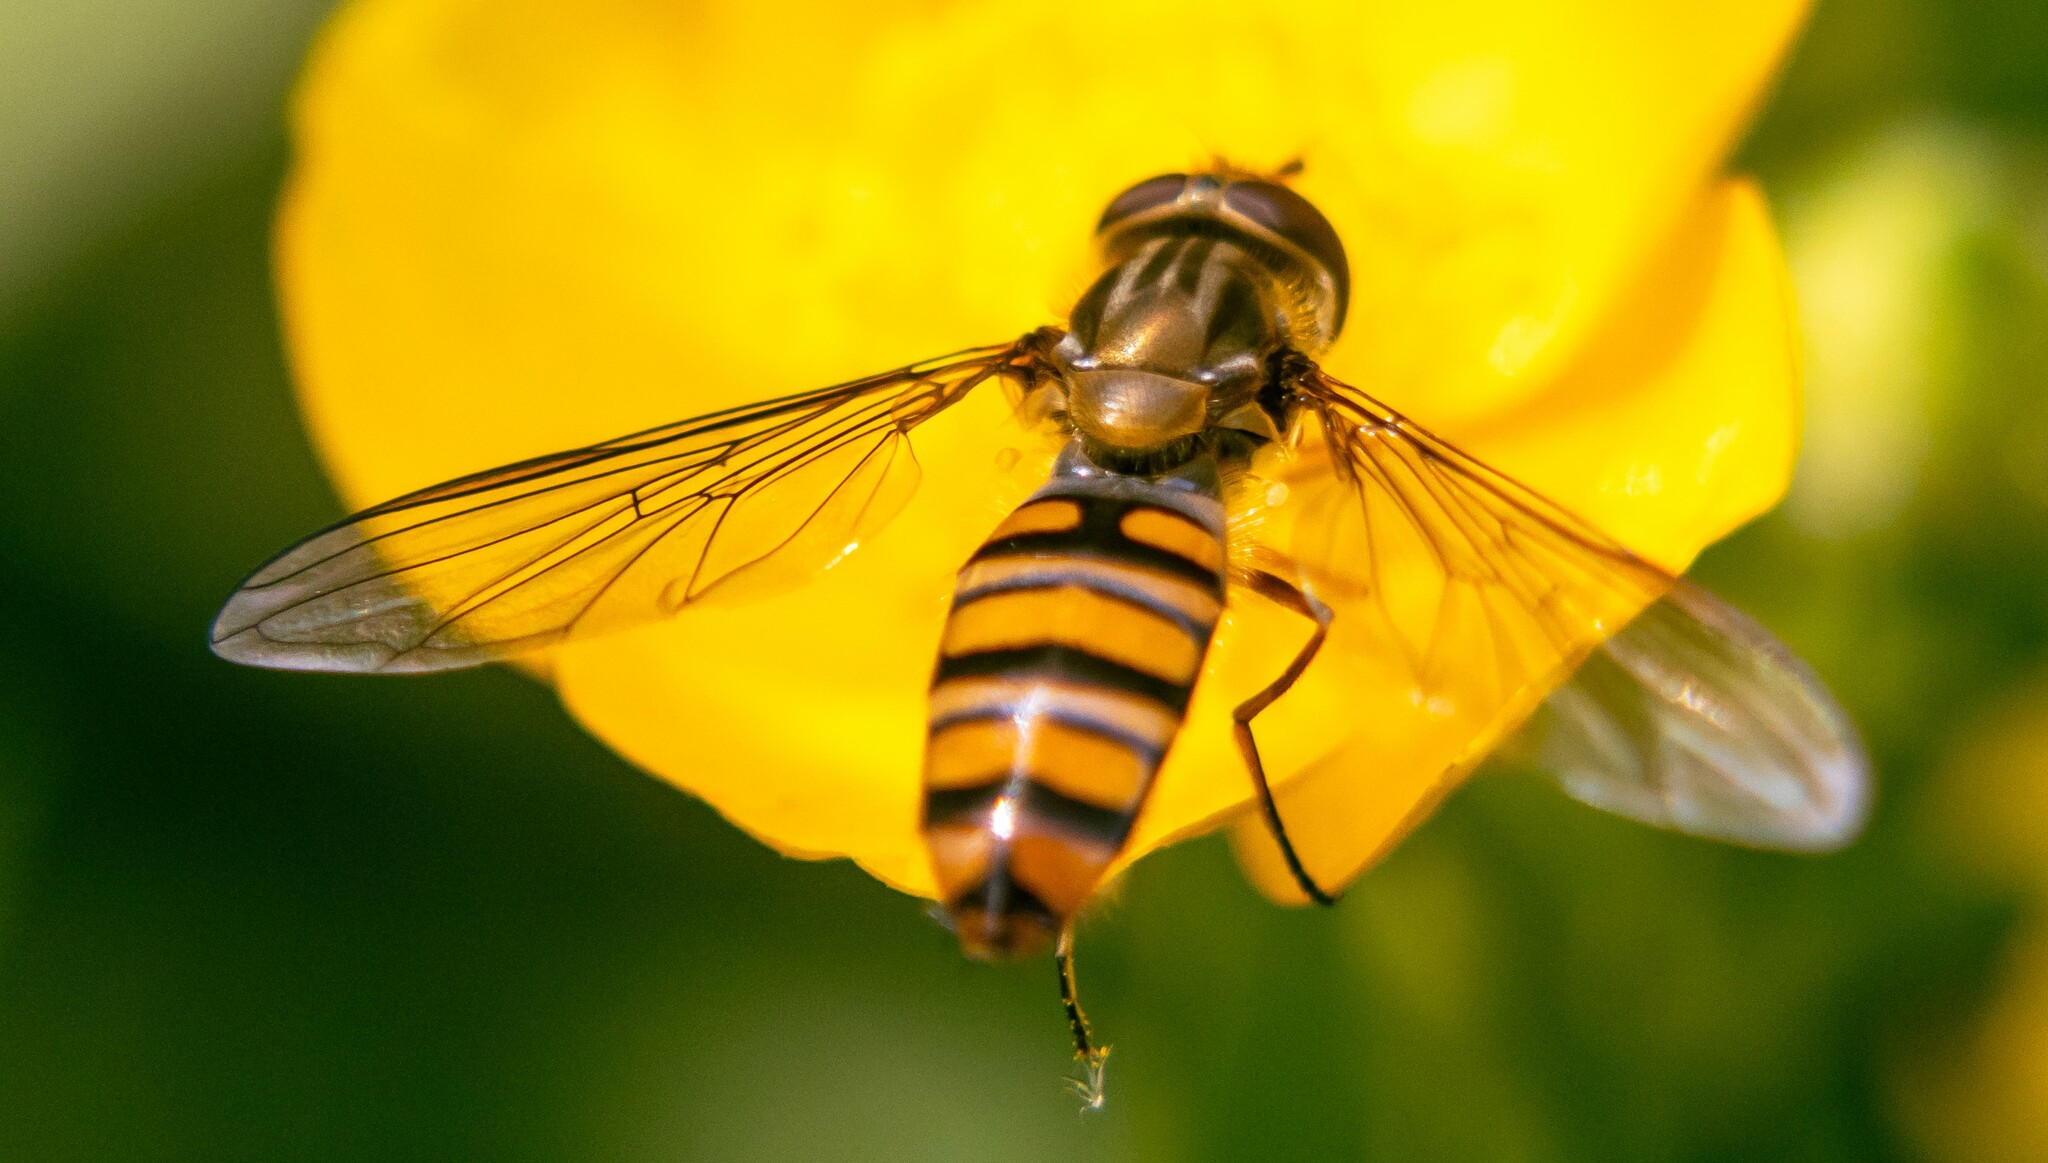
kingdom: Animalia
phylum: Arthropoda
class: Insecta
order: Diptera
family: Syrphidae
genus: Episyrphus
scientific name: Episyrphus balteatus
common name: Marmalade hoverfly
